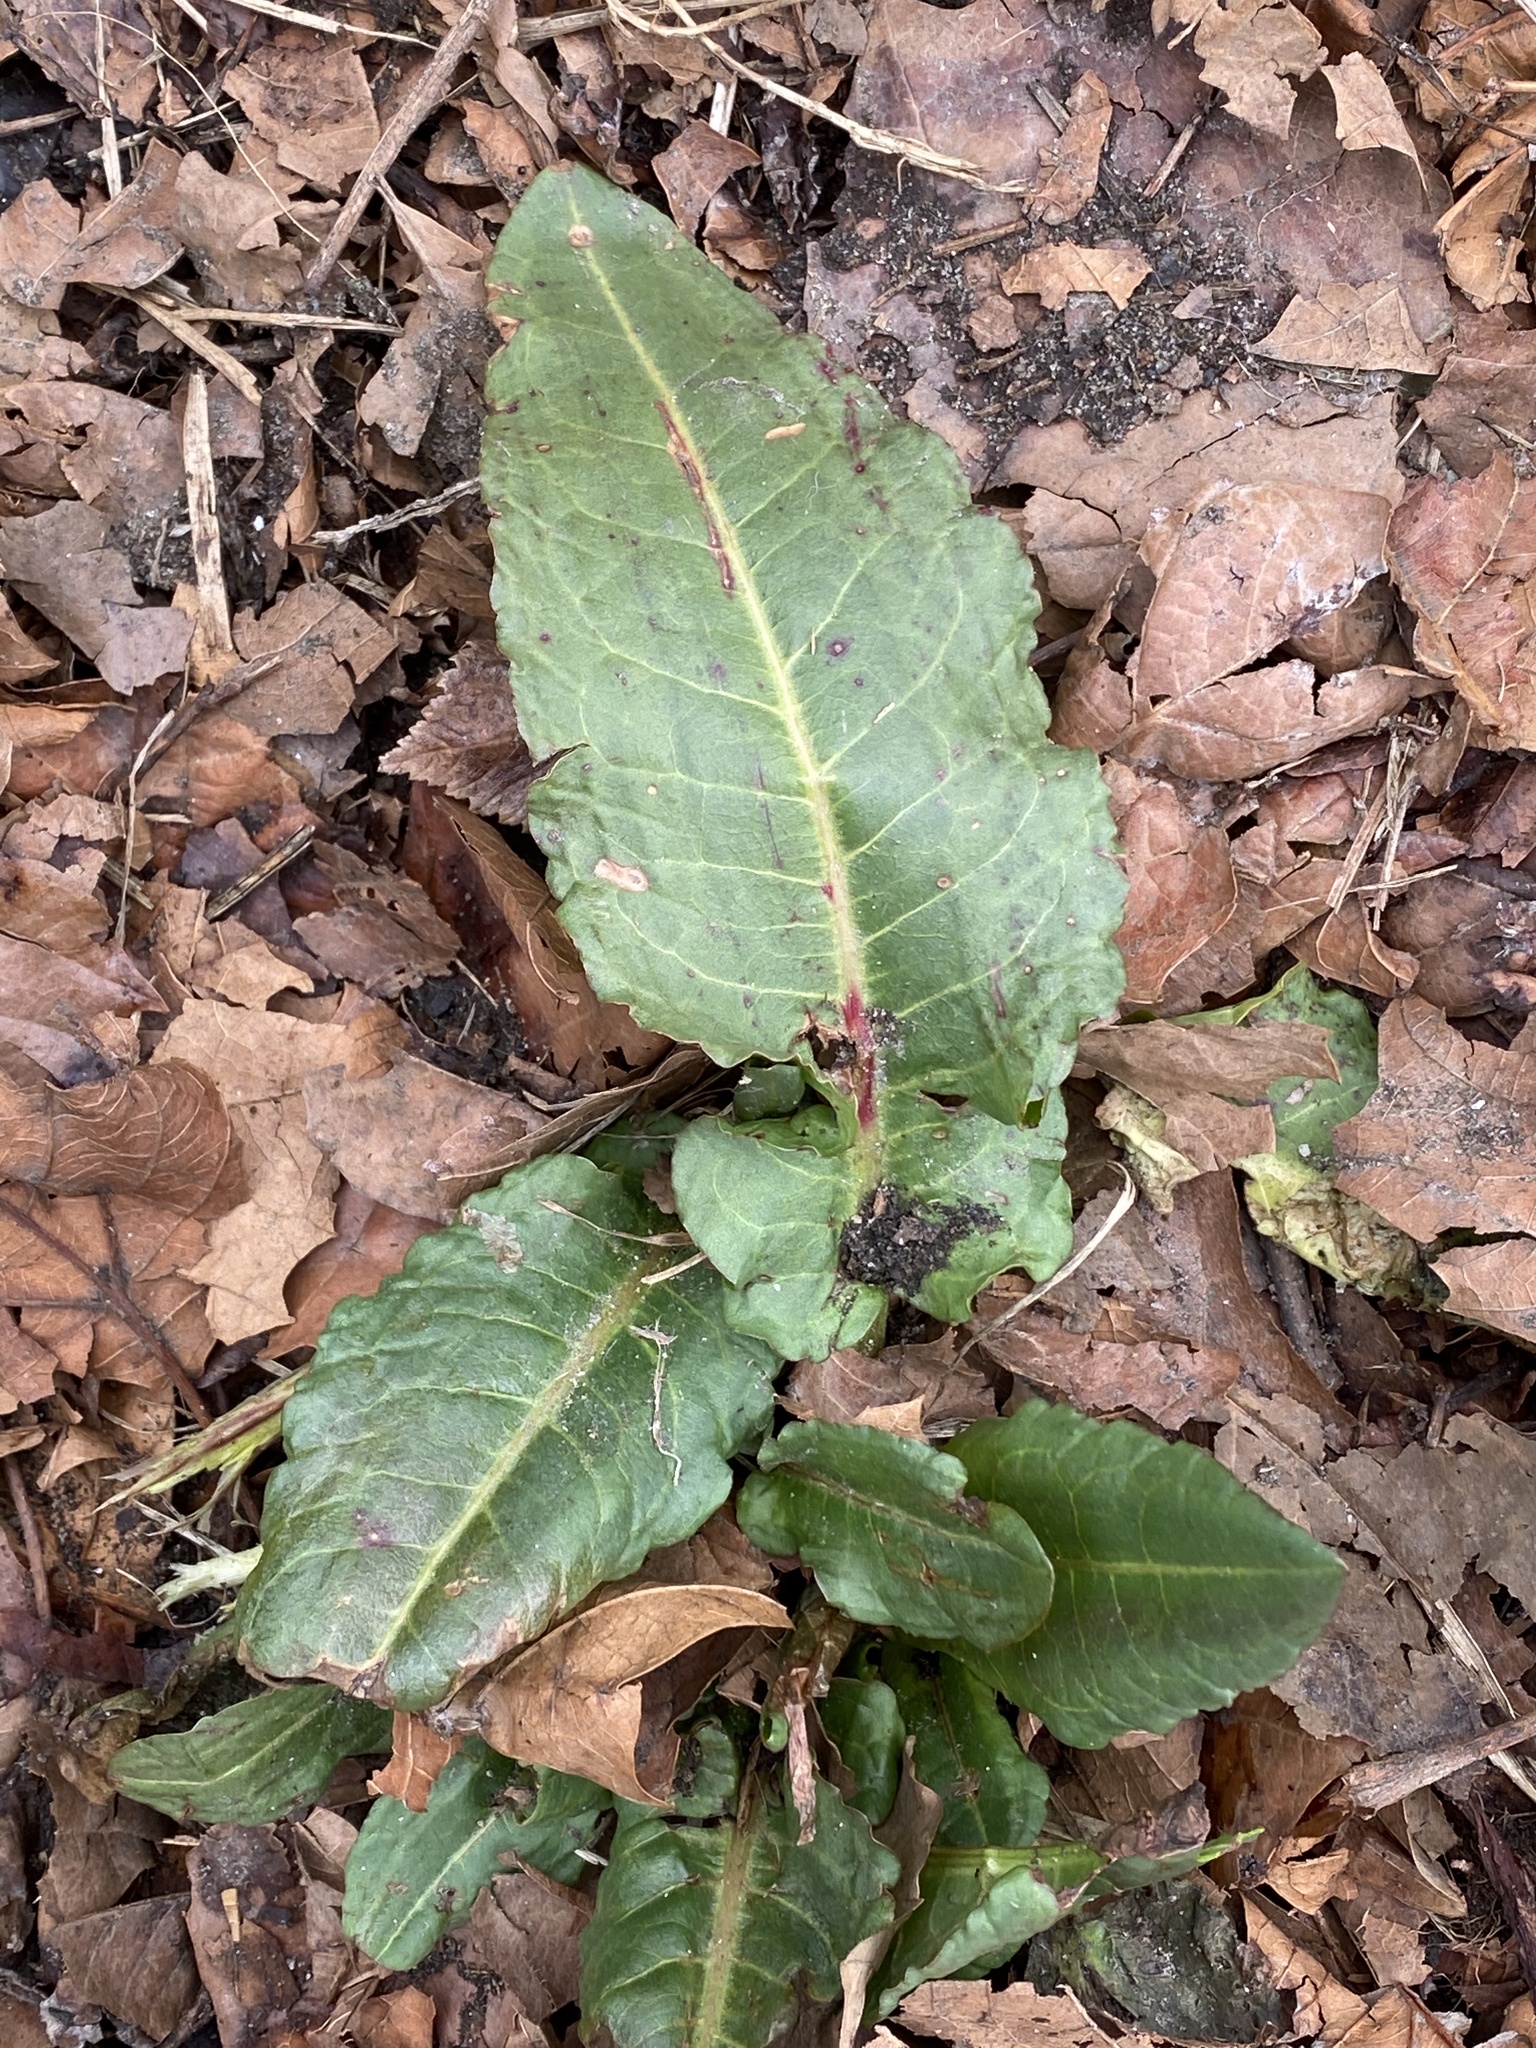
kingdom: Plantae
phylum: Tracheophyta
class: Magnoliopsida
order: Caryophyllales
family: Polygonaceae
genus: Rumex
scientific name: Rumex obtusifolius
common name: Bitter dock
